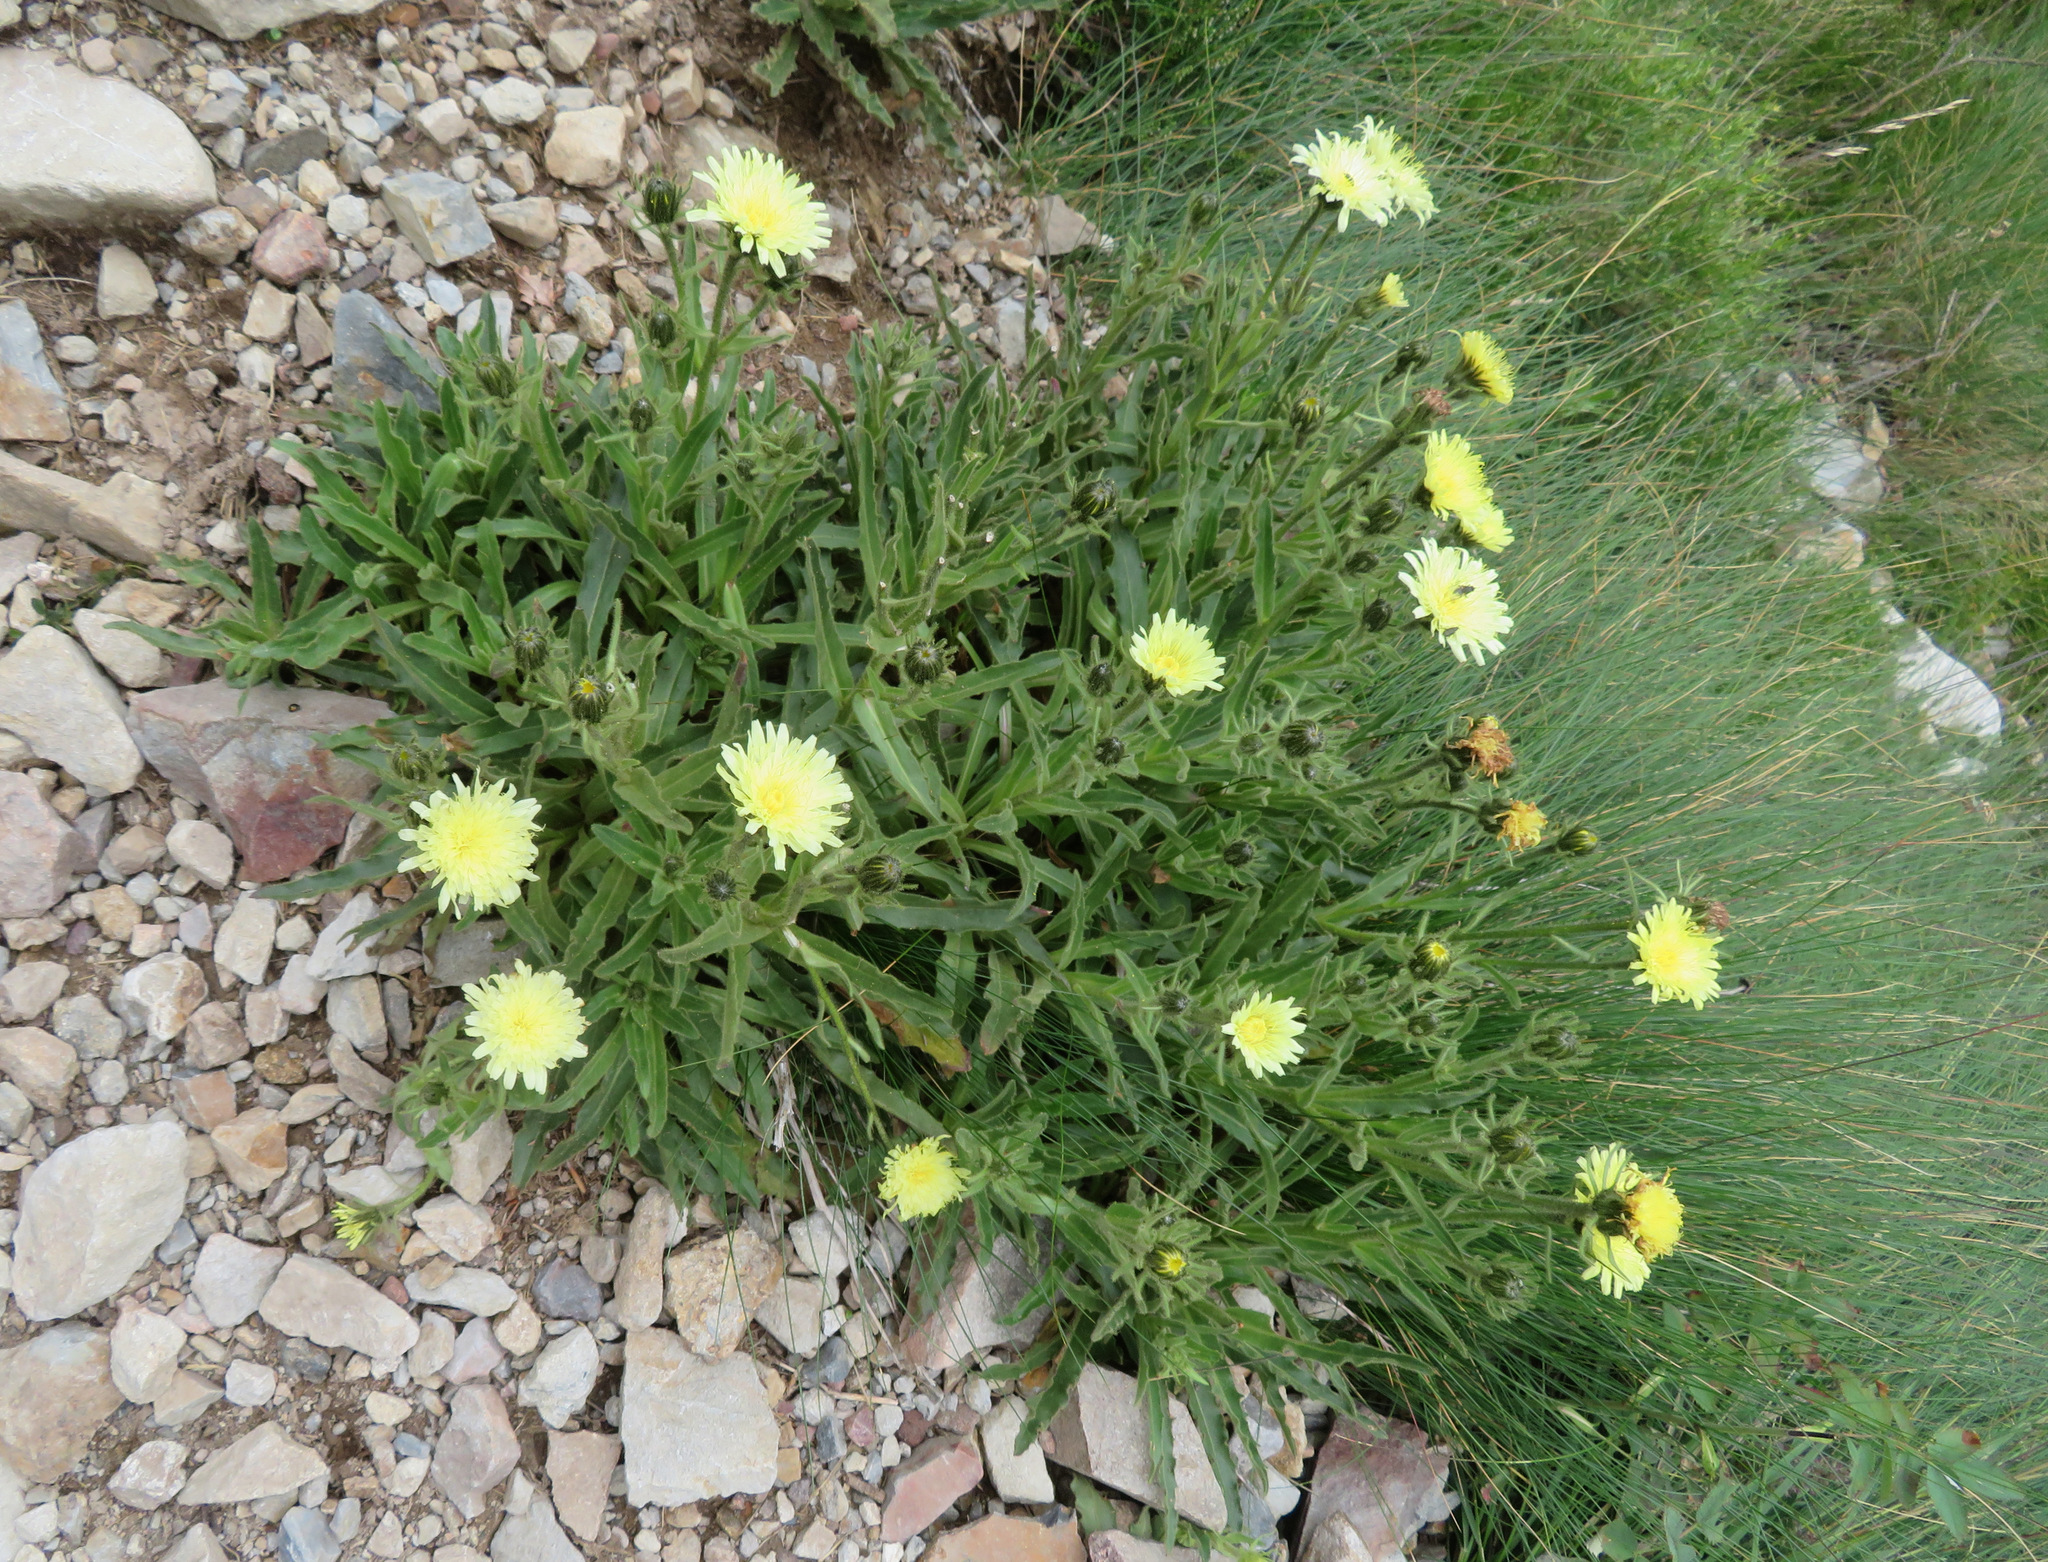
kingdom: Plantae
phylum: Tracheophyta
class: Magnoliopsida
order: Asterales
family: Asteraceae
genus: Schlagintweitia
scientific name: Schlagintweitia intybacea
